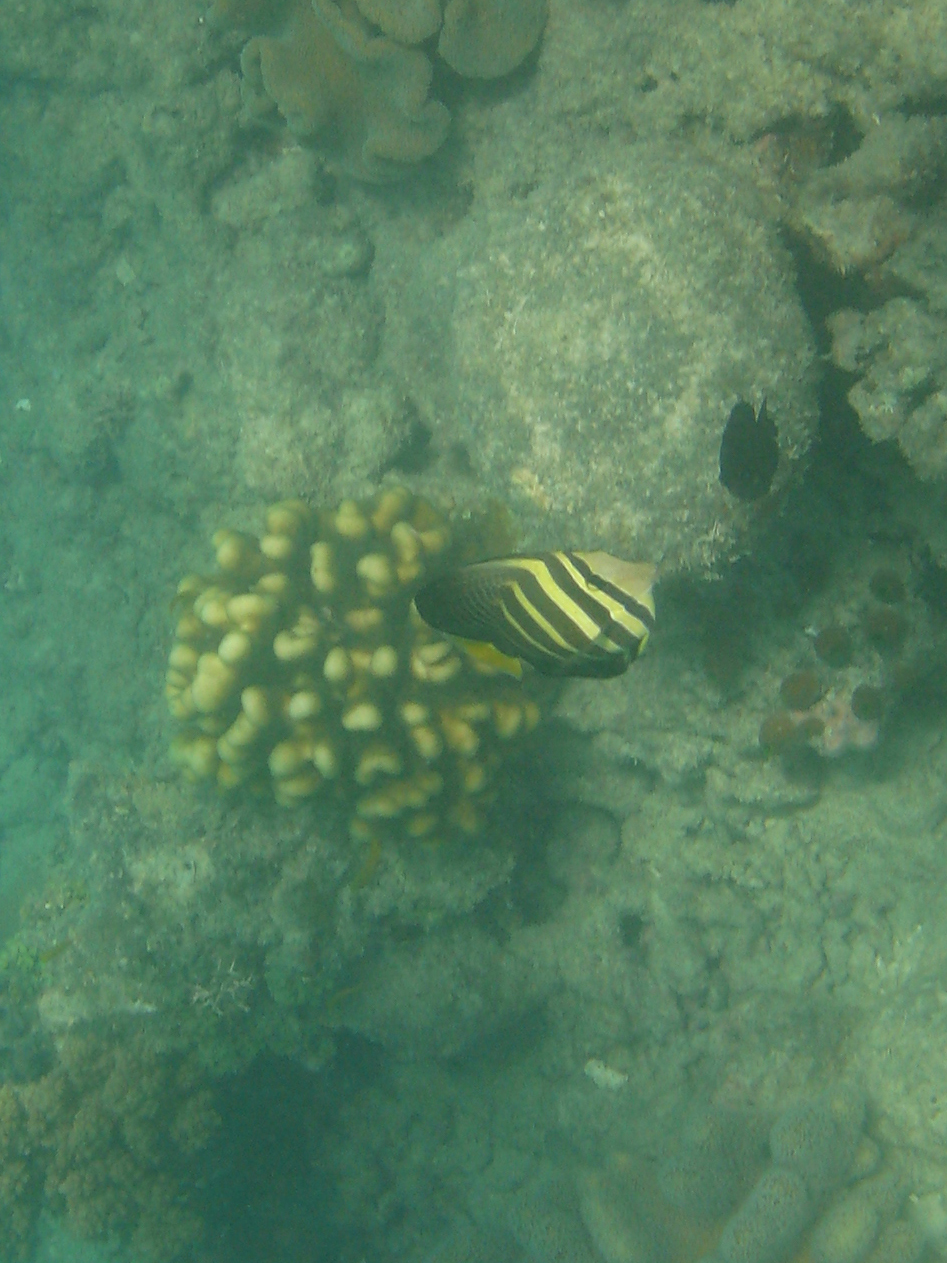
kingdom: Animalia
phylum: Chordata
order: Perciformes
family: Acanthuridae
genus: Zebrasoma
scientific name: Zebrasoma veliferum
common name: Sailfin surgeonfish
